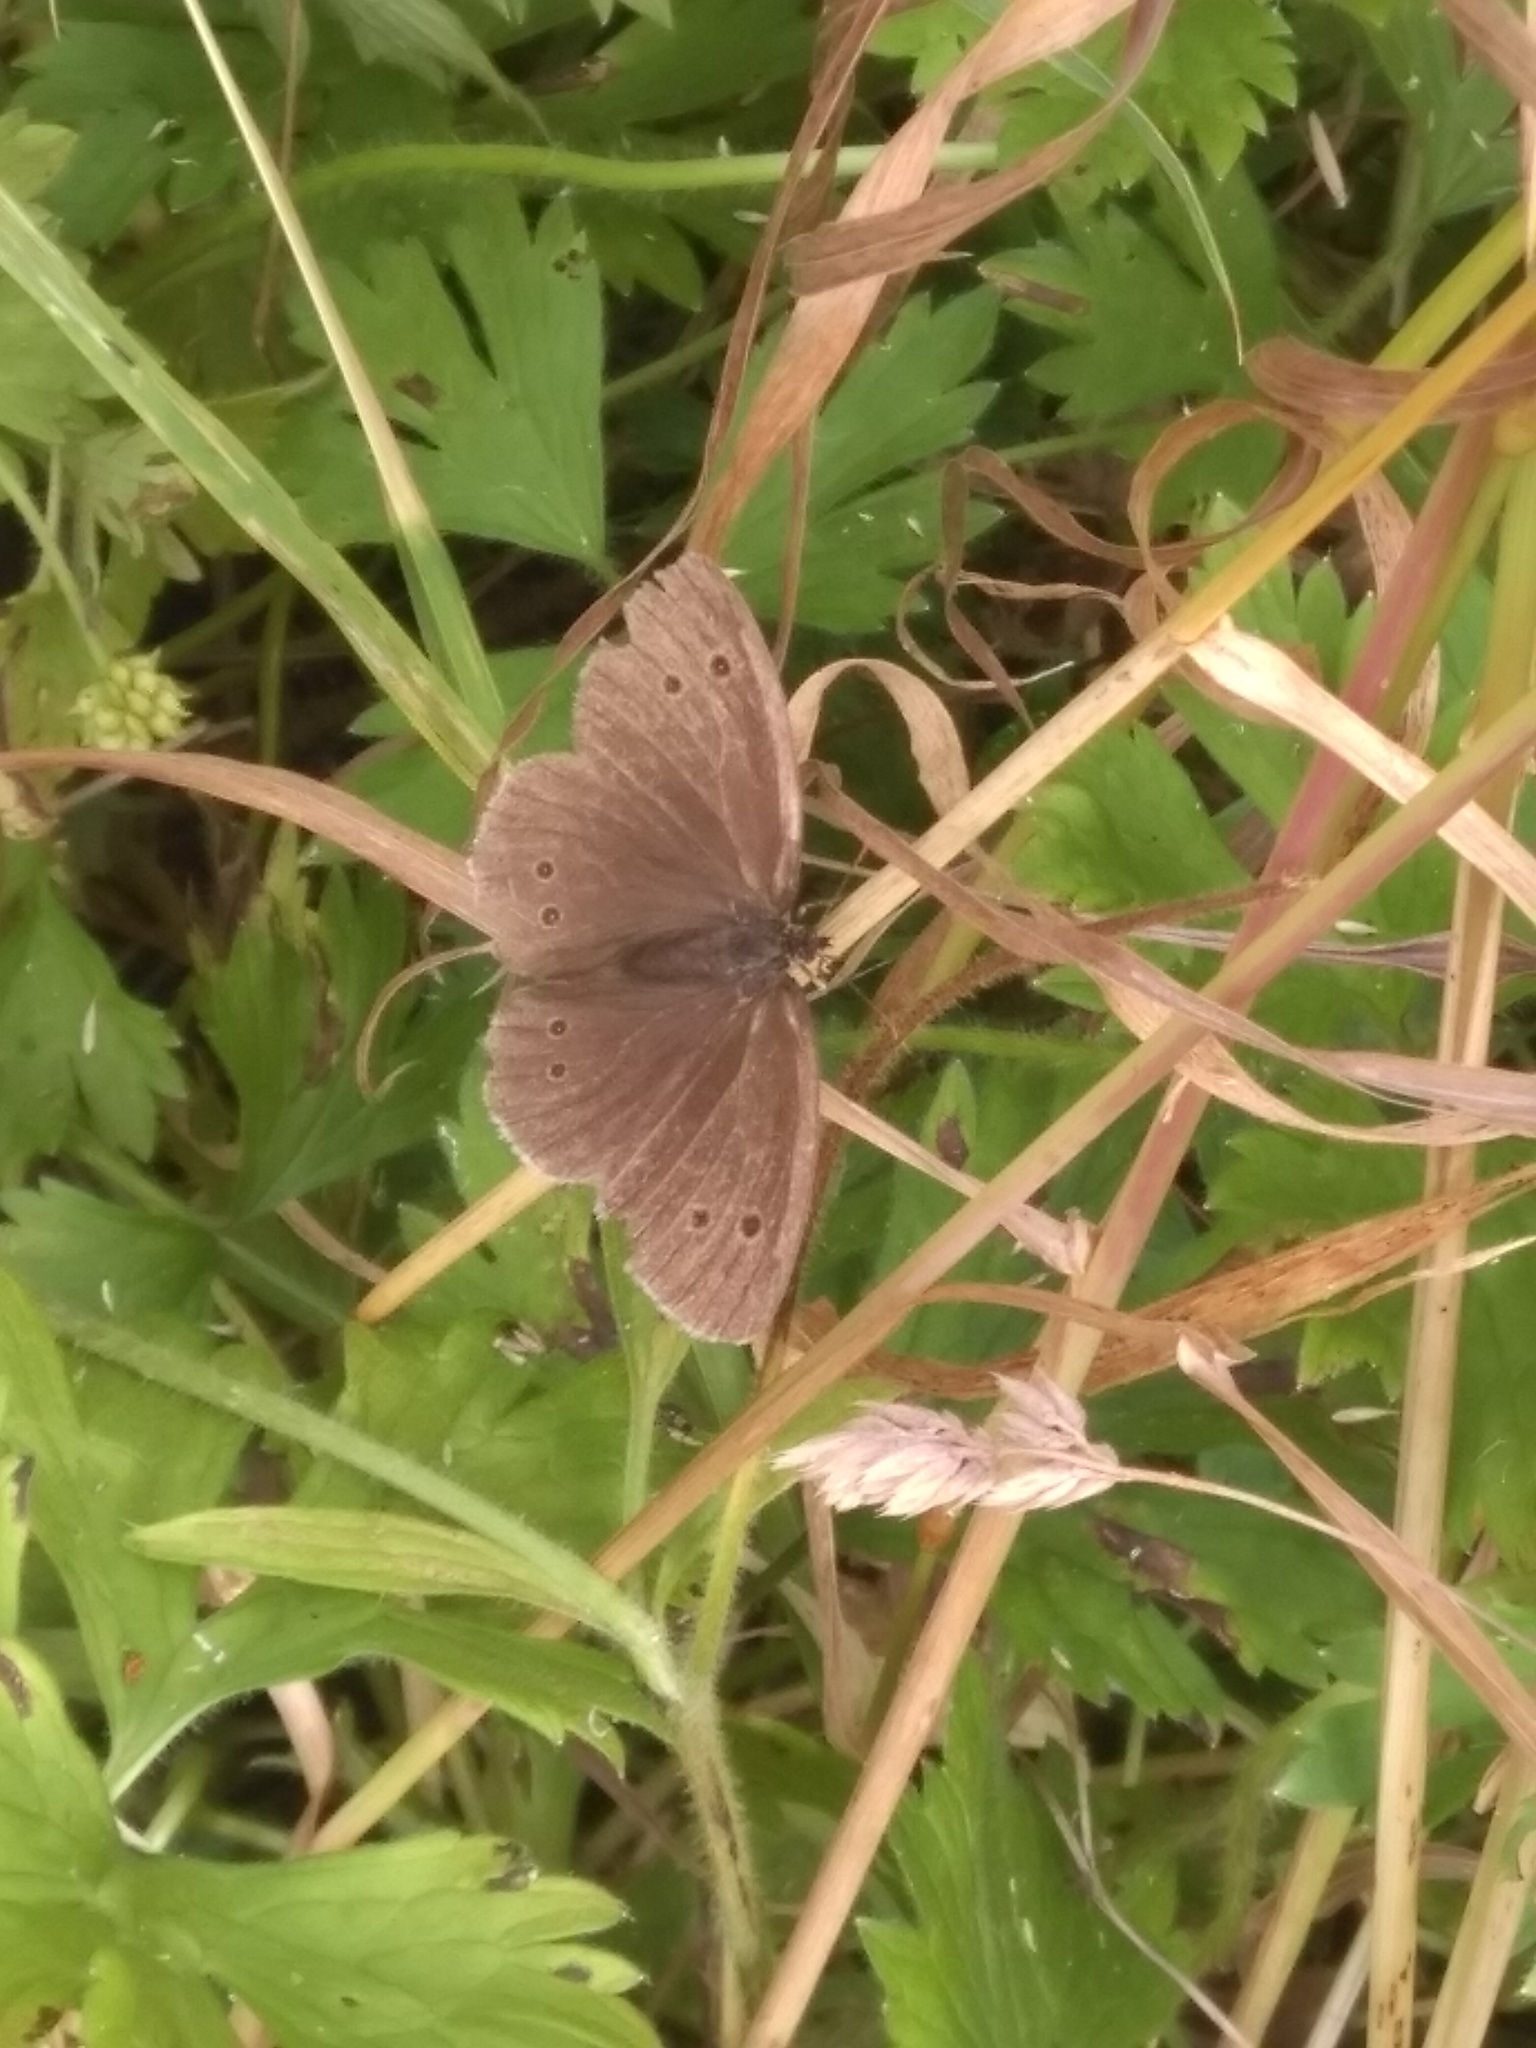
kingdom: Animalia
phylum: Arthropoda
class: Insecta
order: Lepidoptera
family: Nymphalidae
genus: Aphantopus
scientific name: Aphantopus hyperantus
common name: Ringlet
